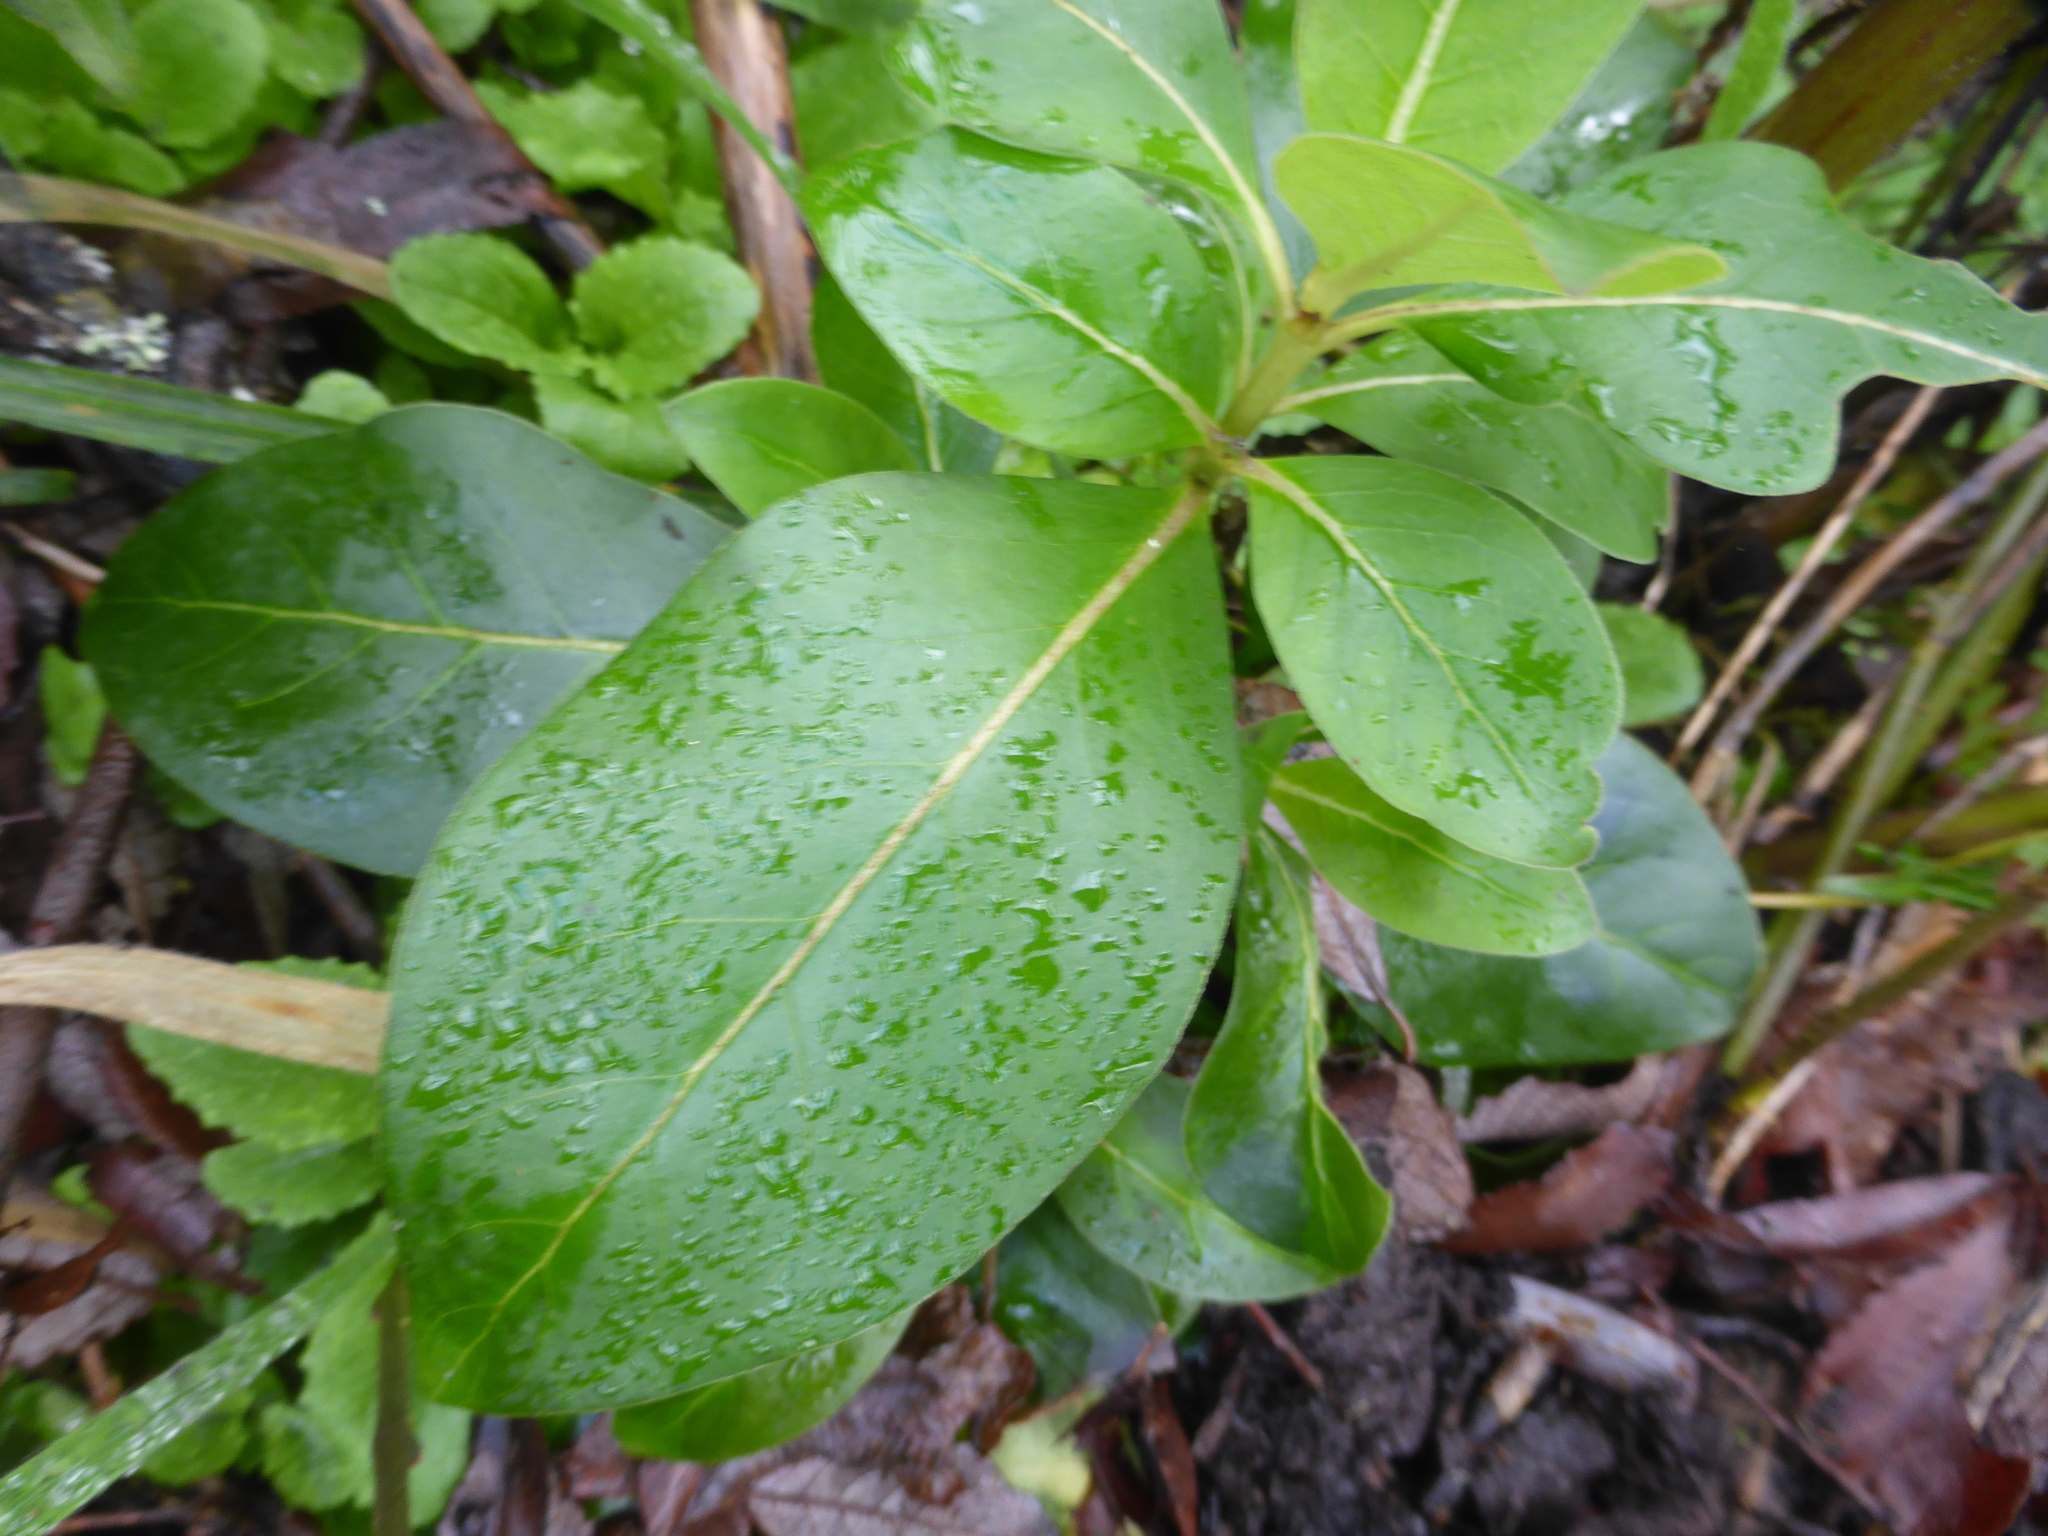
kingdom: Plantae
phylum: Tracheophyta
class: Magnoliopsida
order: Gentianales
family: Rubiaceae
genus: Coprosma
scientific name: Coprosma robusta
